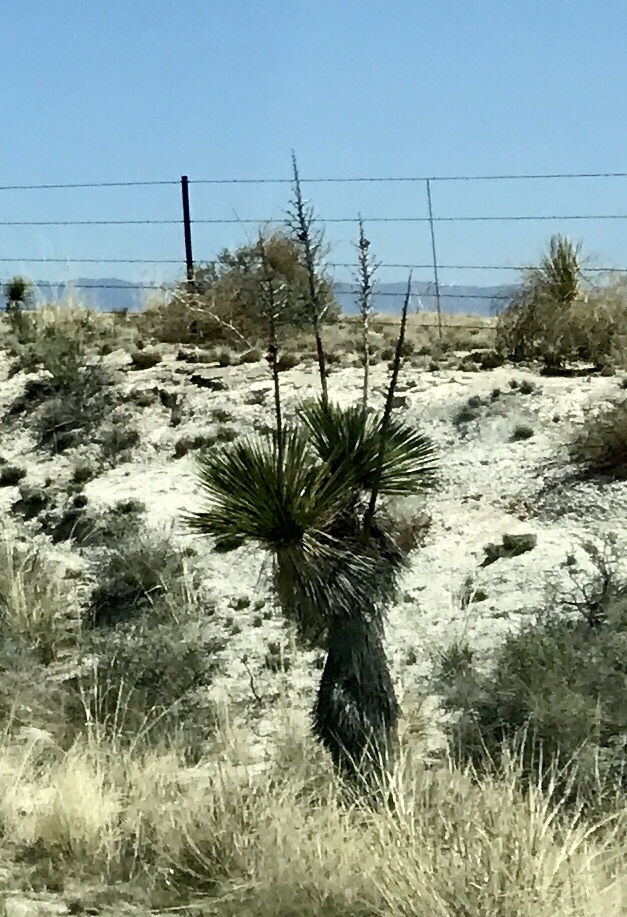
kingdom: Plantae
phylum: Tracheophyta
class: Liliopsida
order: Asparagales
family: Asparagaceae
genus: Yucca
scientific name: Yucca elata
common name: Palmella
